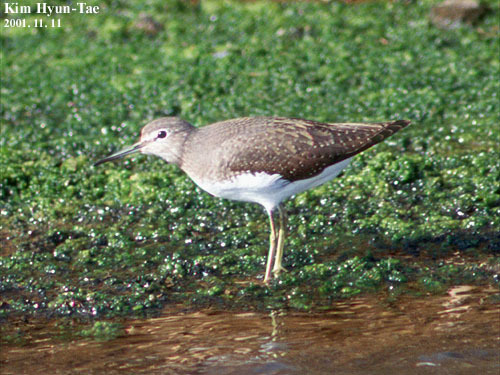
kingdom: Animalia
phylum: Chordata
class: Aves
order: Charadriiformes
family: Scolopacidae
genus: Tringa
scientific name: Tringa ochropus
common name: Green sandpiper
